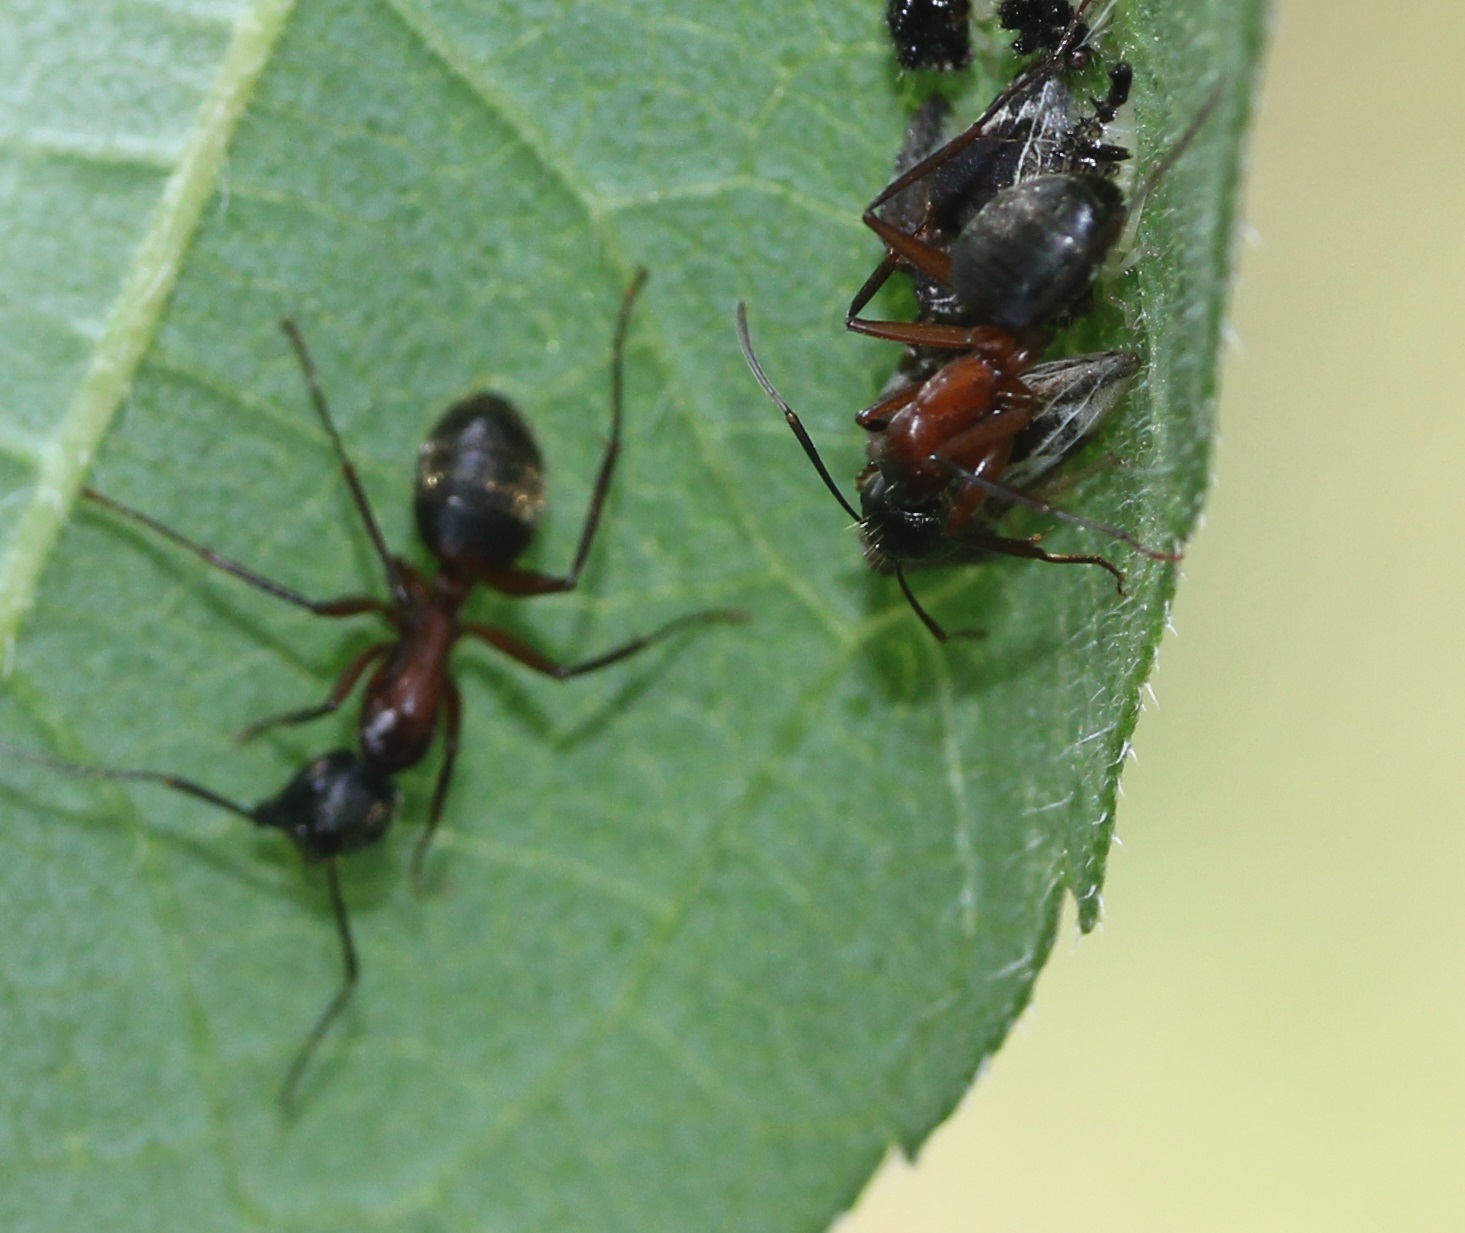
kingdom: Animalia
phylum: Arthropoda
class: Insecta
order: Hymenoptera
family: Formicidae
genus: Camponotus
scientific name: Camponotus chromaiodes
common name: Red carpenter ant
